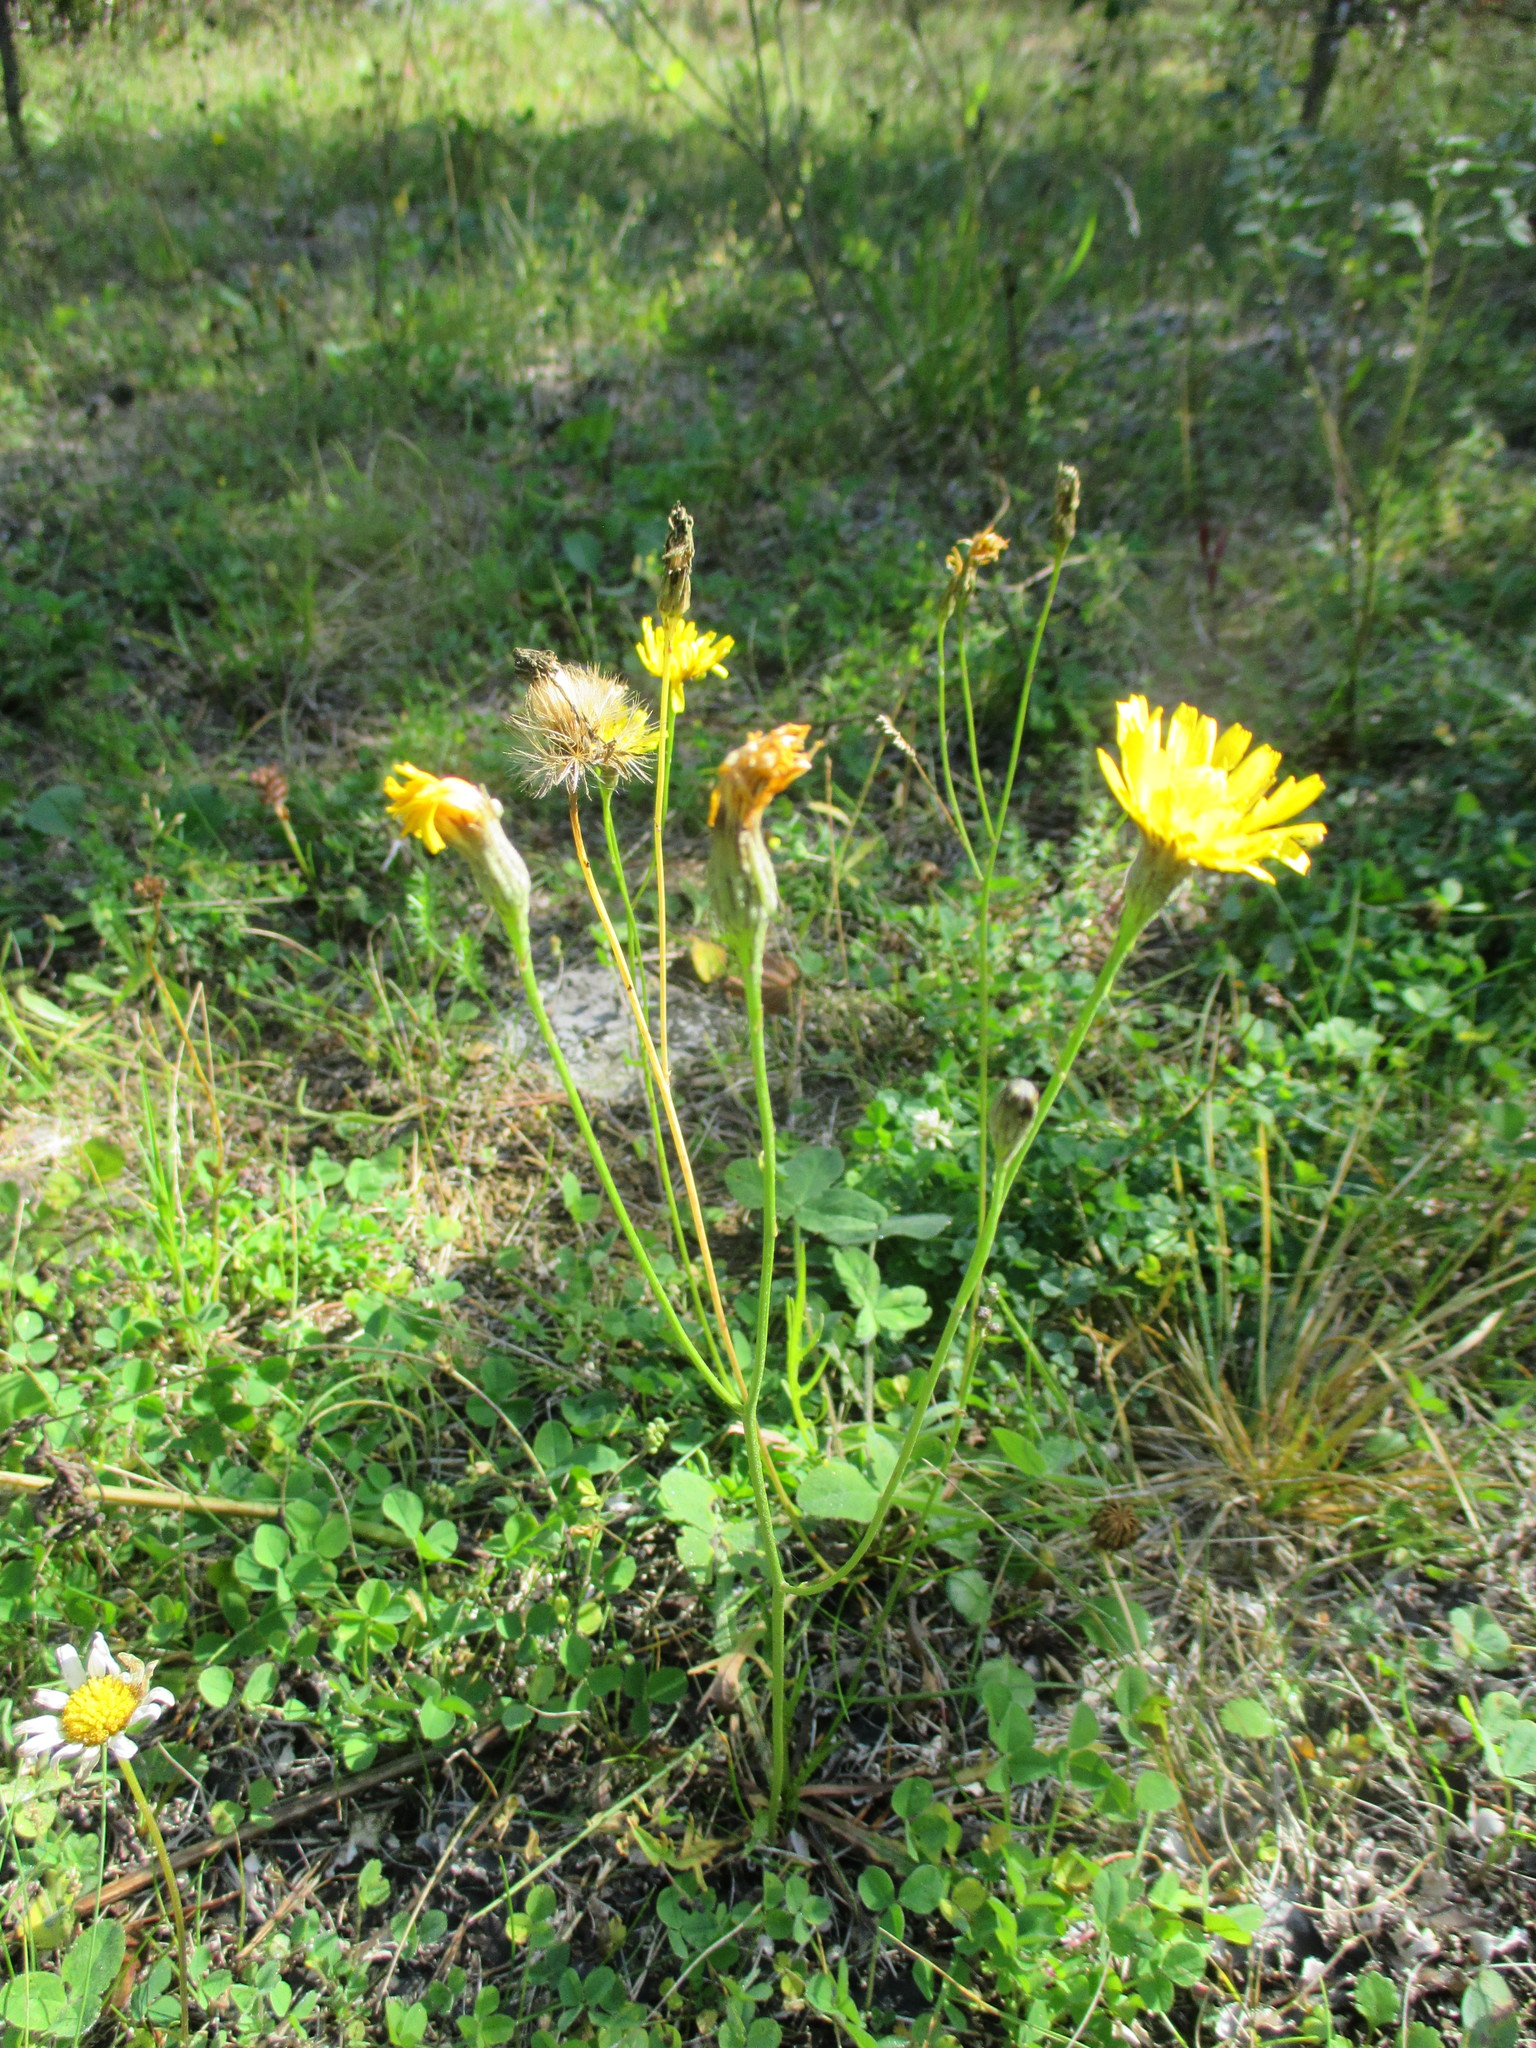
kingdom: Plantae
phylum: Tracheophyta
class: Magnoliopsida
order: Asterales
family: Asteraceae
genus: Scorzoneroides
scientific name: Scorzoneroides autumnalis
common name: Autumn hawkbit
